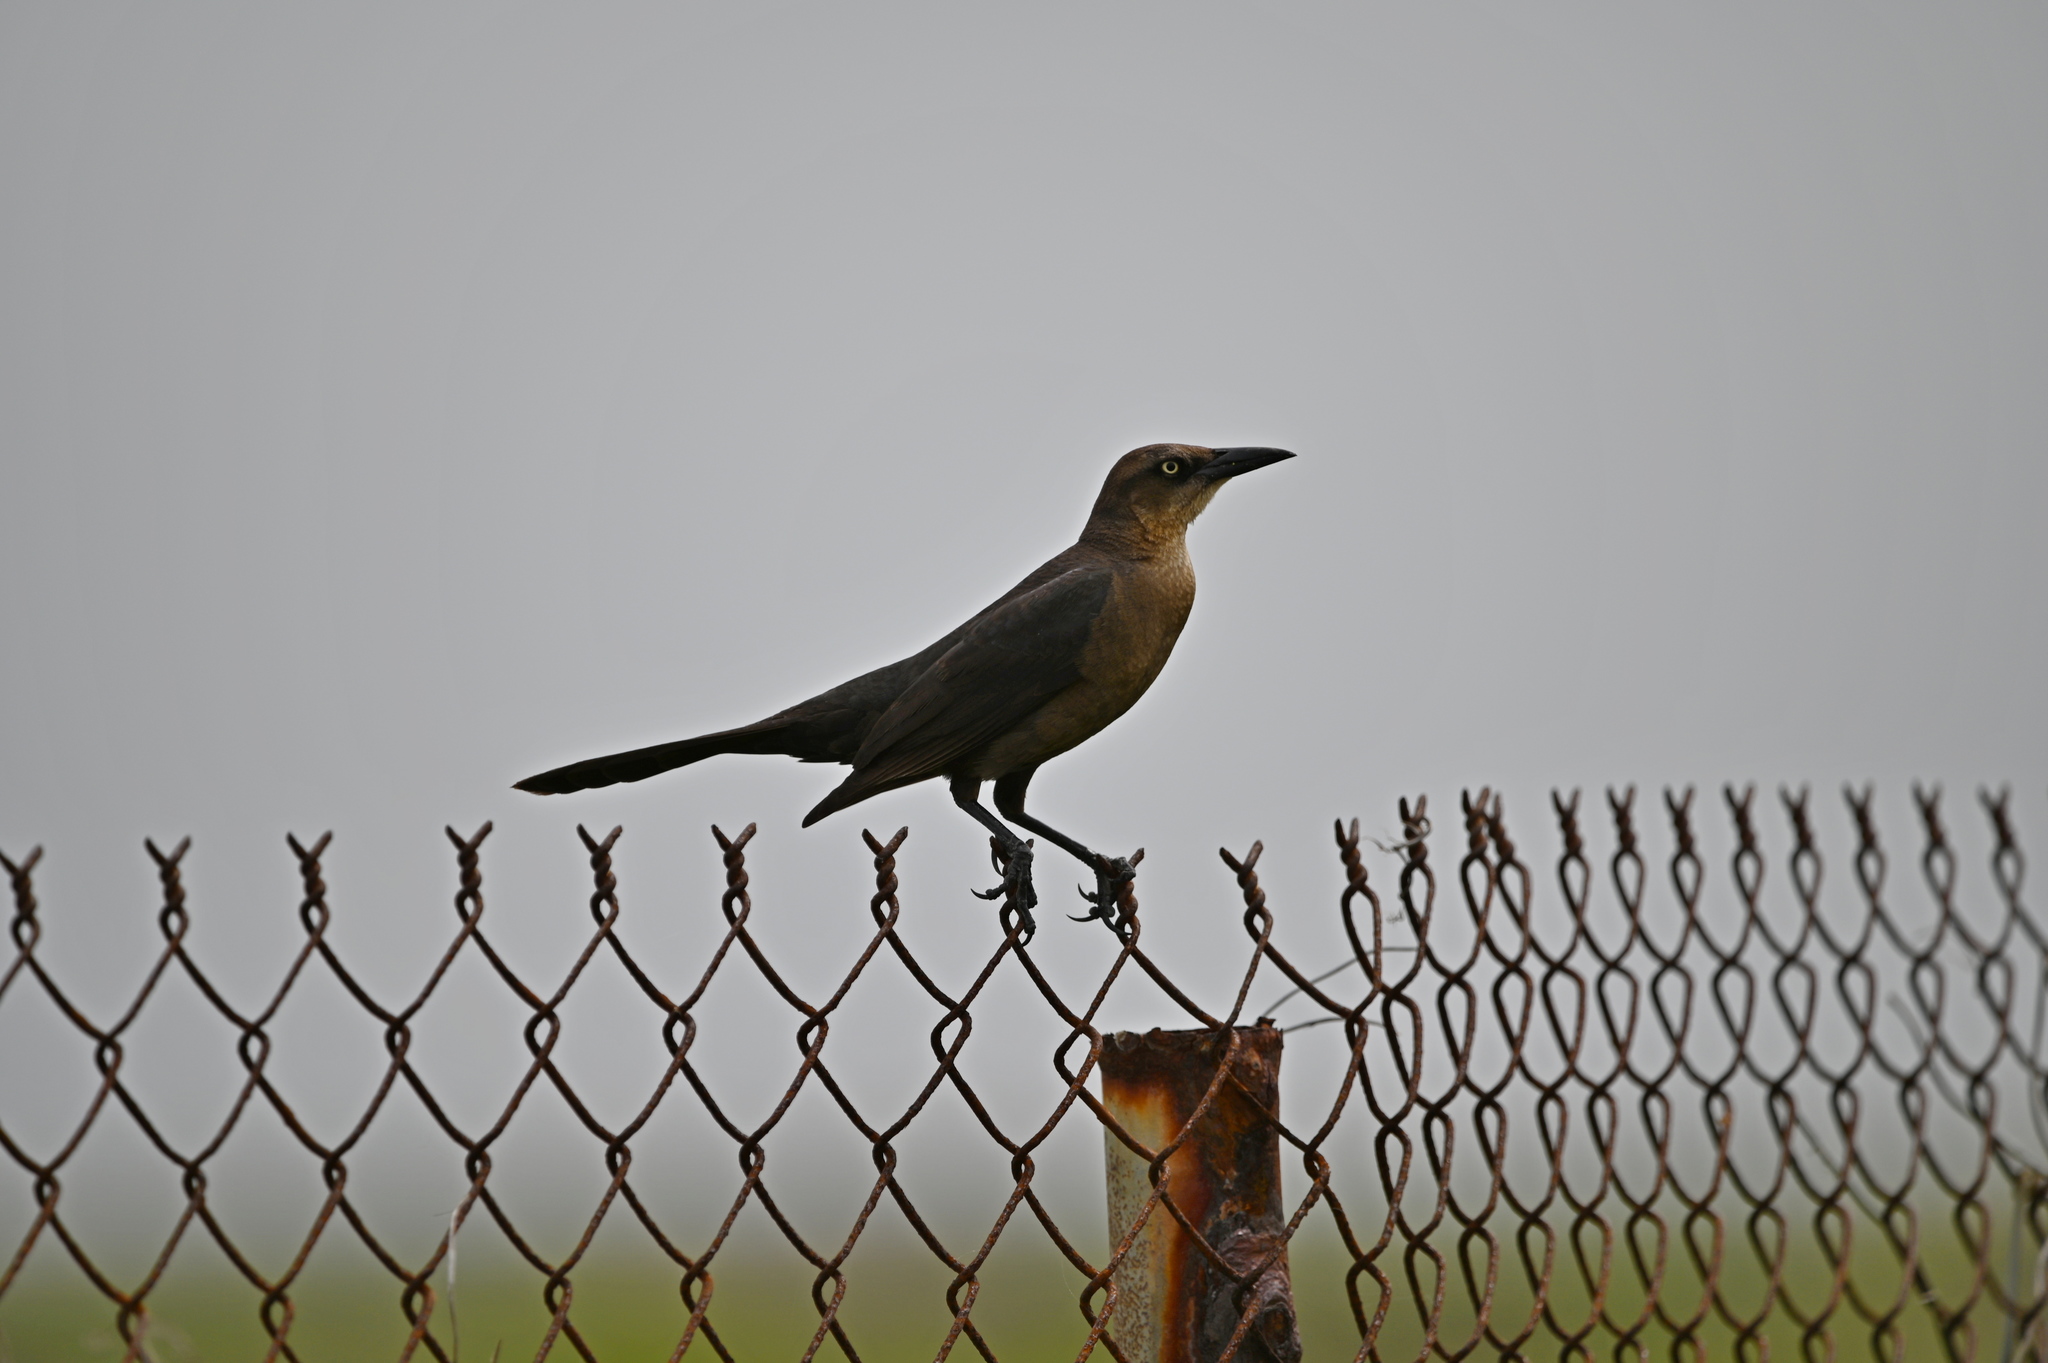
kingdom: Animalia
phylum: Chordata
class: Aves
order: Passeriformes
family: Icteridae
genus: Quiscalus
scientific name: Quiscalus mexicanus
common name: Great-tailed grackle
